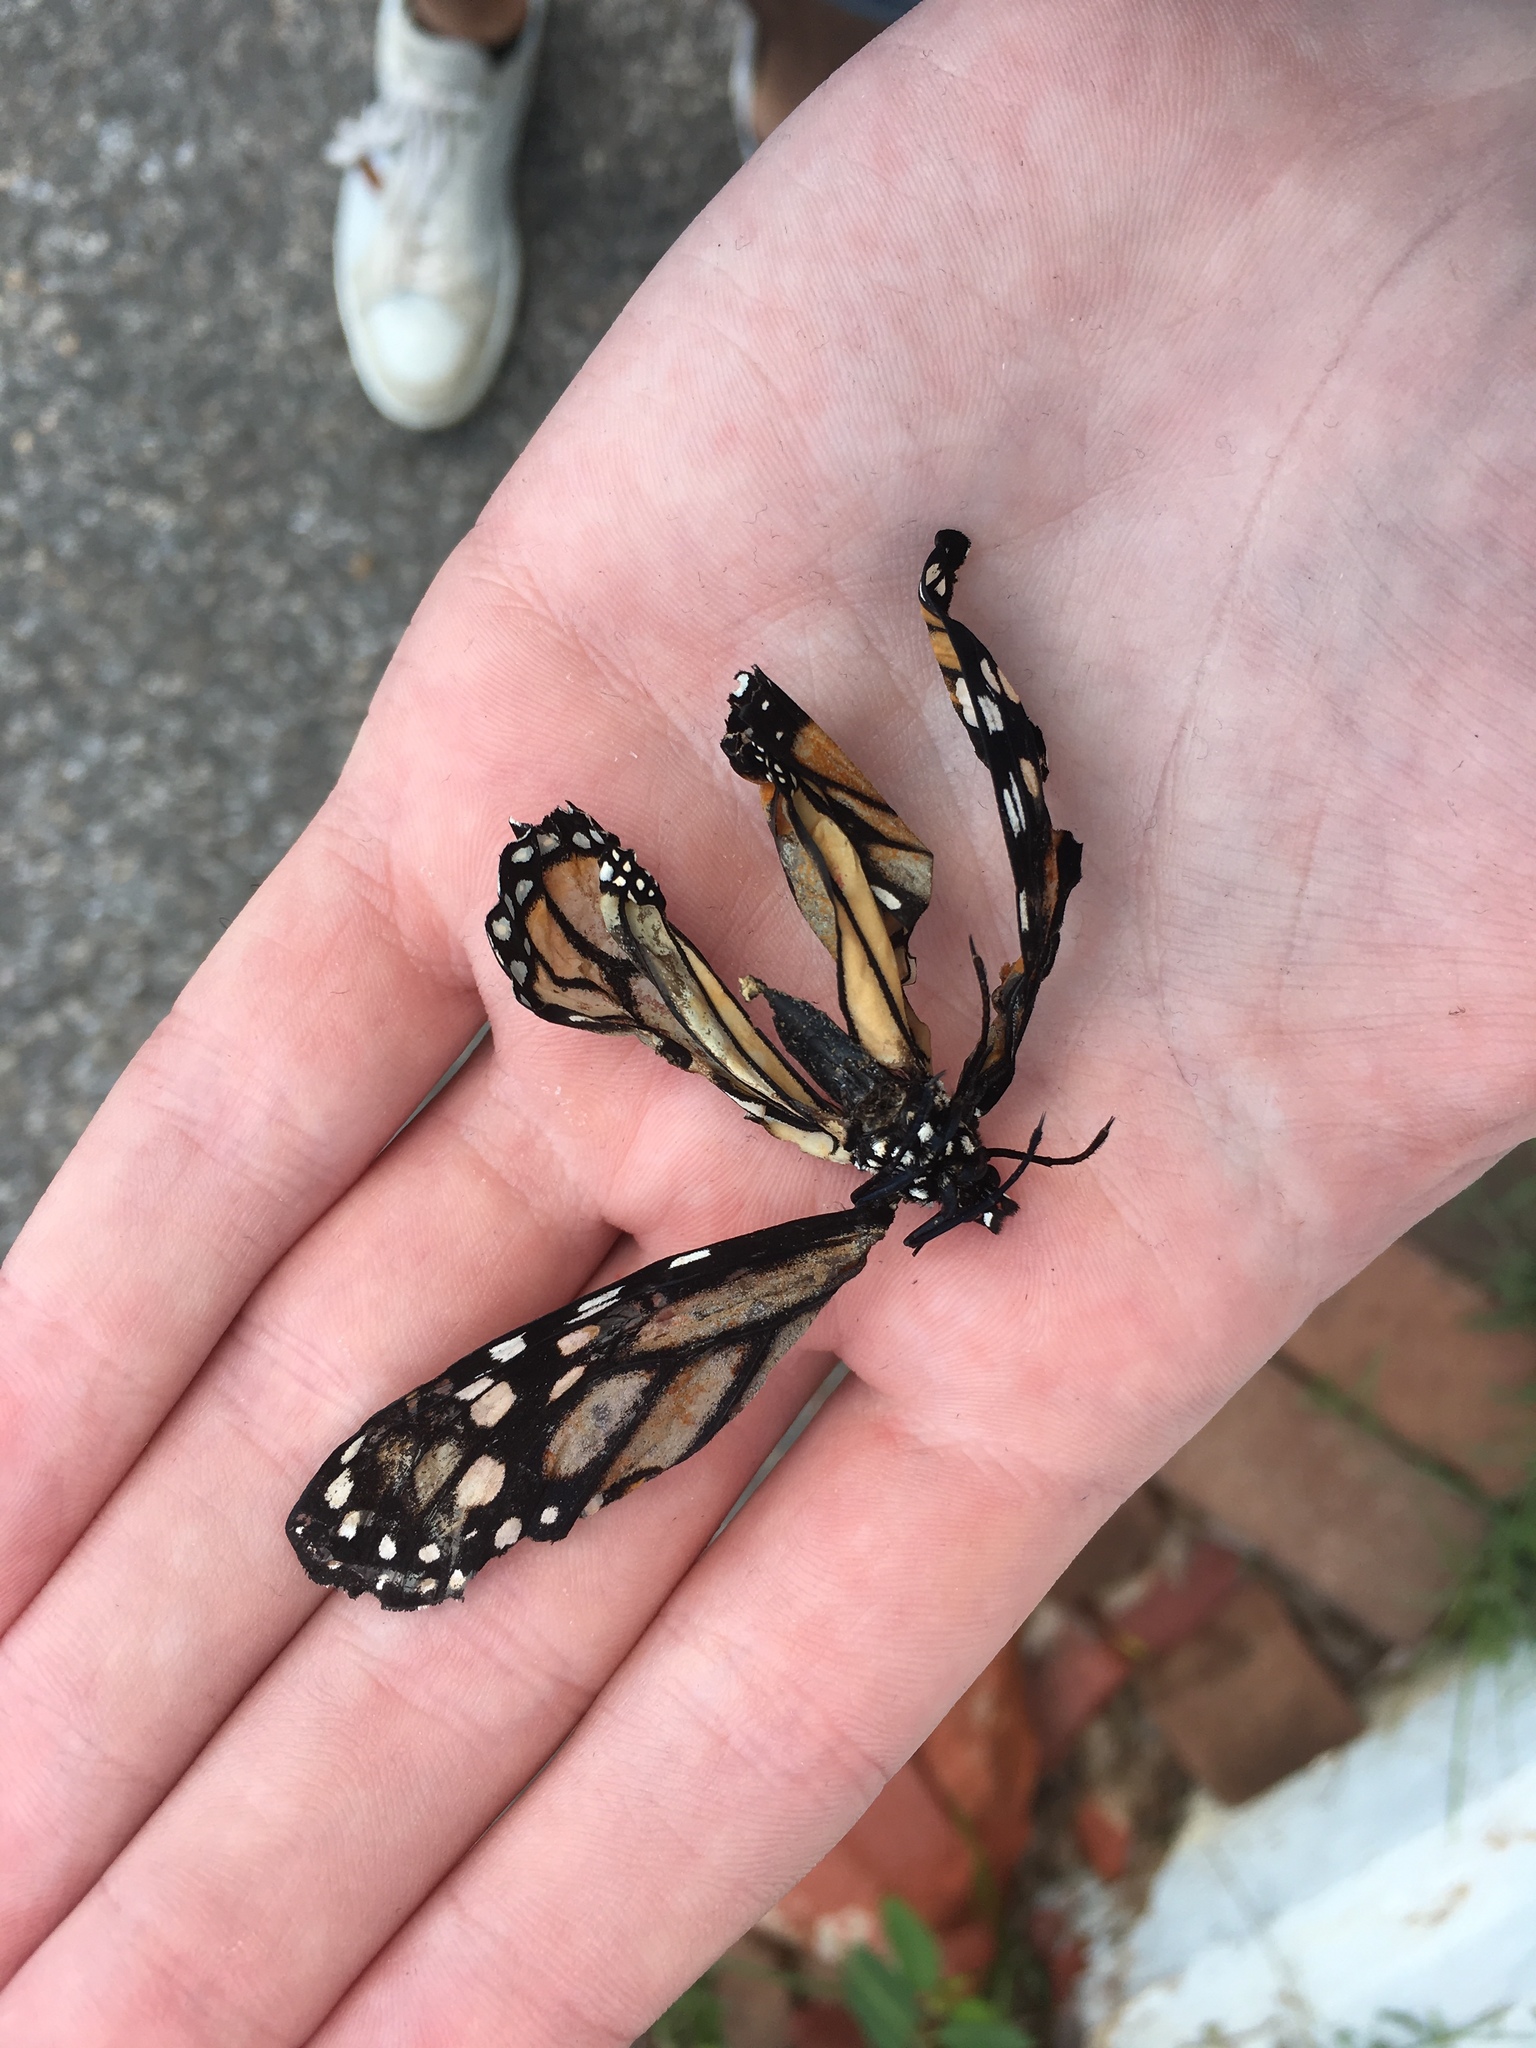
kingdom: Animalia
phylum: Arthropoda
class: Insecta
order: Lepidoptera
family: Nymphalidae
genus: Danaus
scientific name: Danaus plexippus
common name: Monarch
